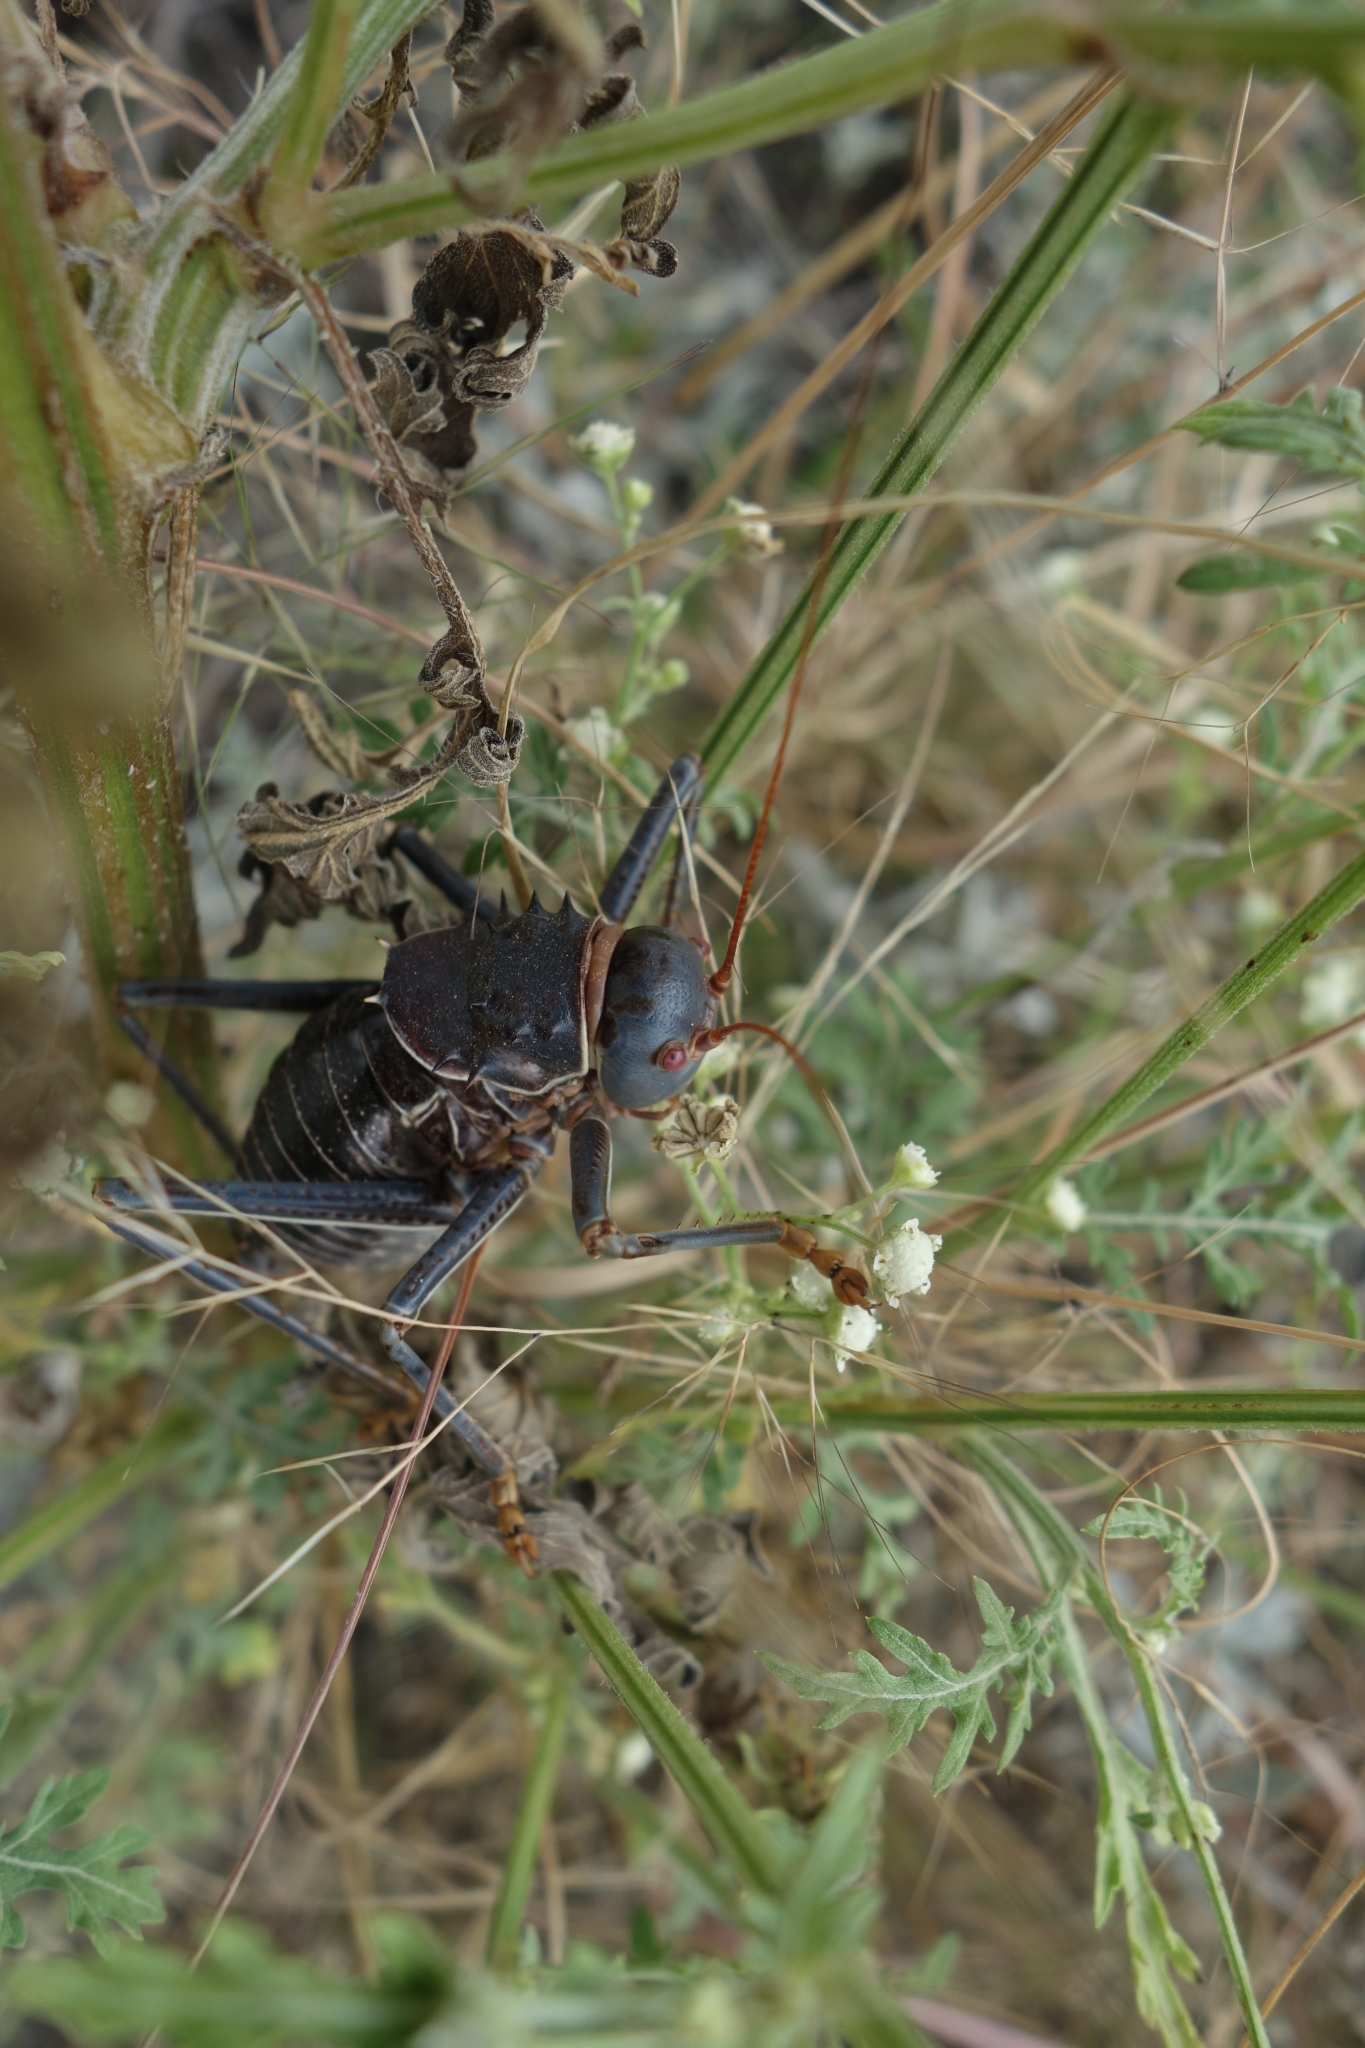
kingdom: Animalia
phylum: Arthropoda
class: Insecta
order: Orthoptera
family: Tettigoniidae
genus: Acanthoplus
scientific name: Acanthoplus discoidalis
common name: Armoured katydid
